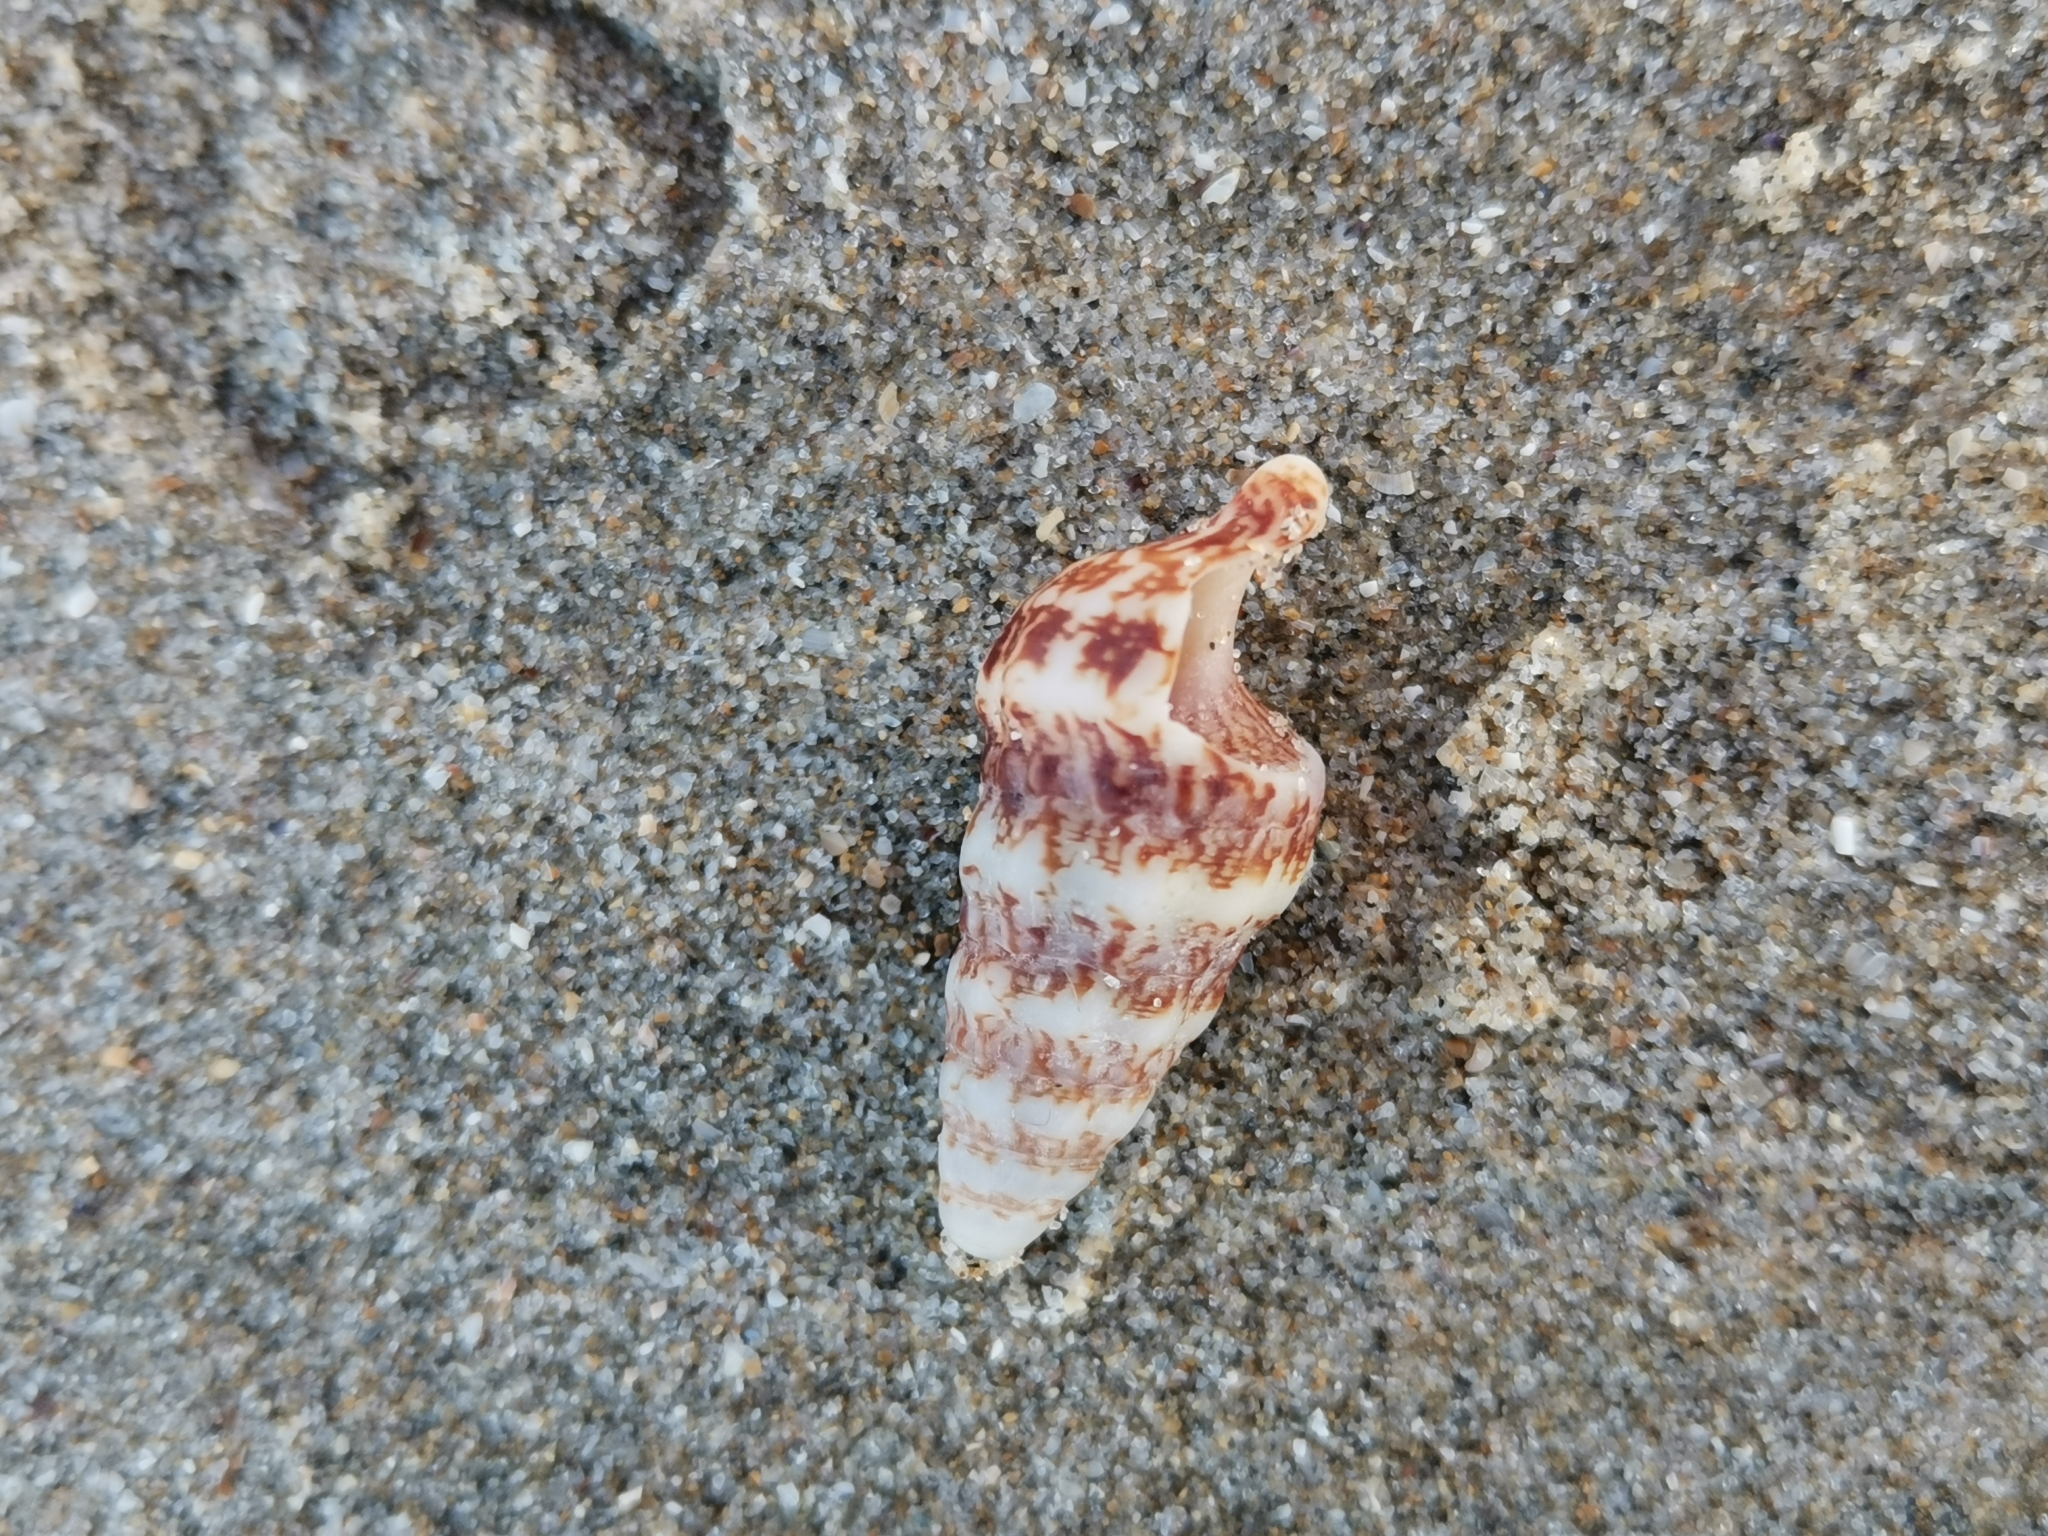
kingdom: Animalia
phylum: Mollusca
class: Gastropoda
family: Cerithiidae
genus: Cerithium
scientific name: Cerithium vulgatum
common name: European cerith
